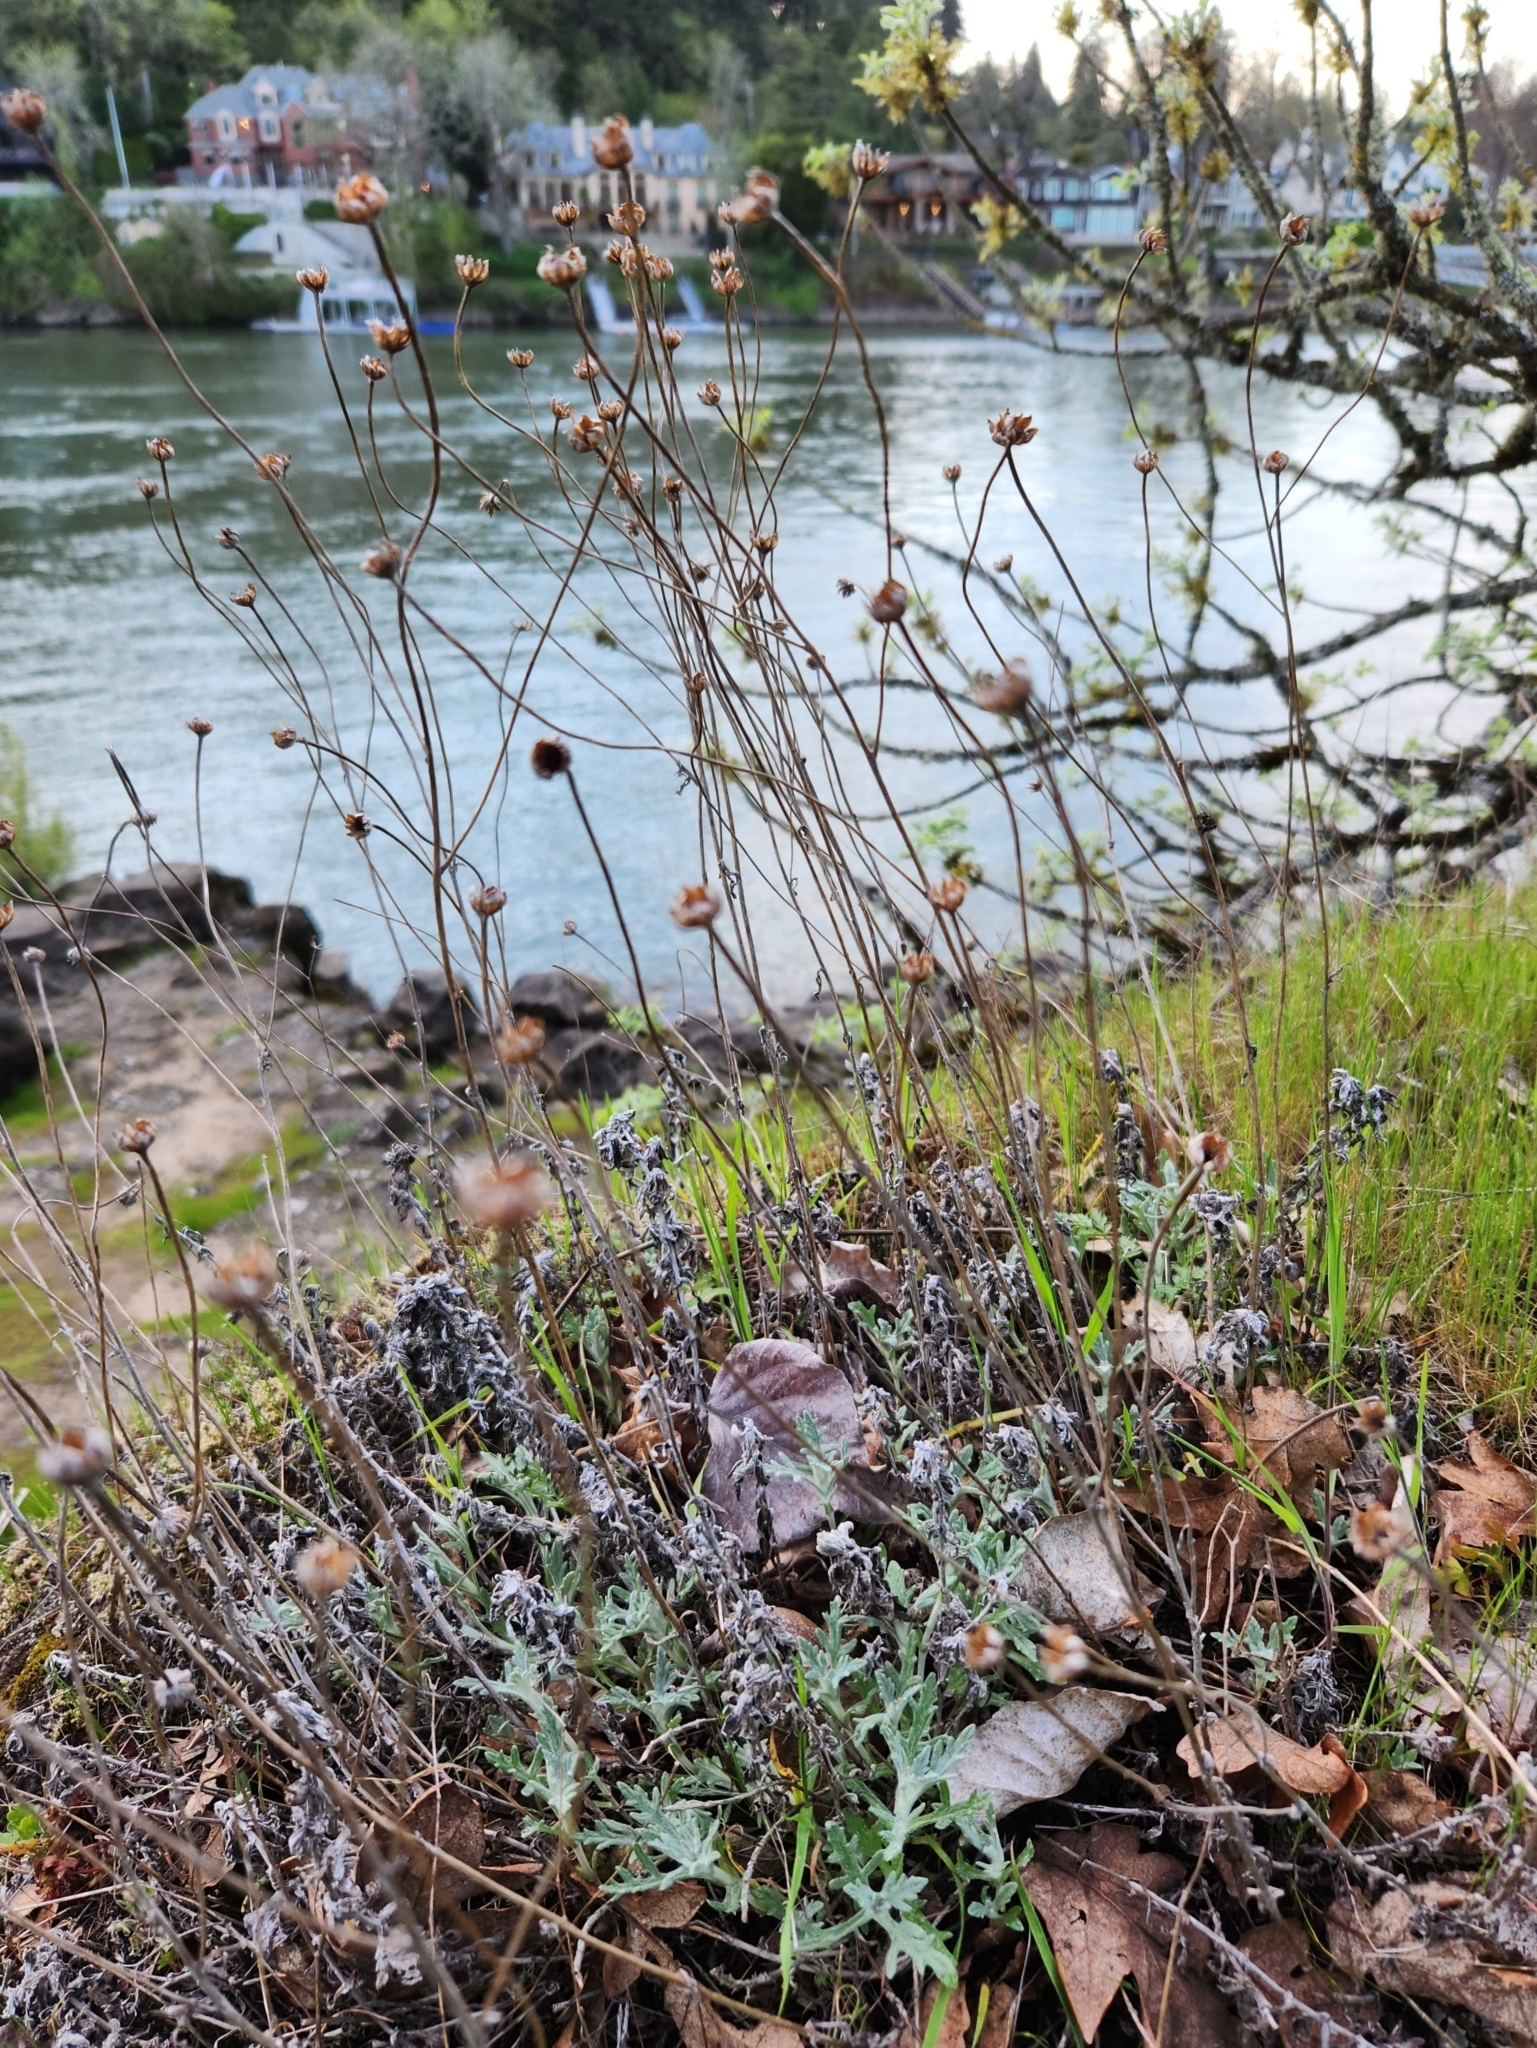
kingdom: Plantae
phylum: Tracheophyta
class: Magnoliopsida
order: Asterales
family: Asteraceae
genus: Eriophyllum
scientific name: Eriophyllum lanatum
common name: Common woolly-sunflower
